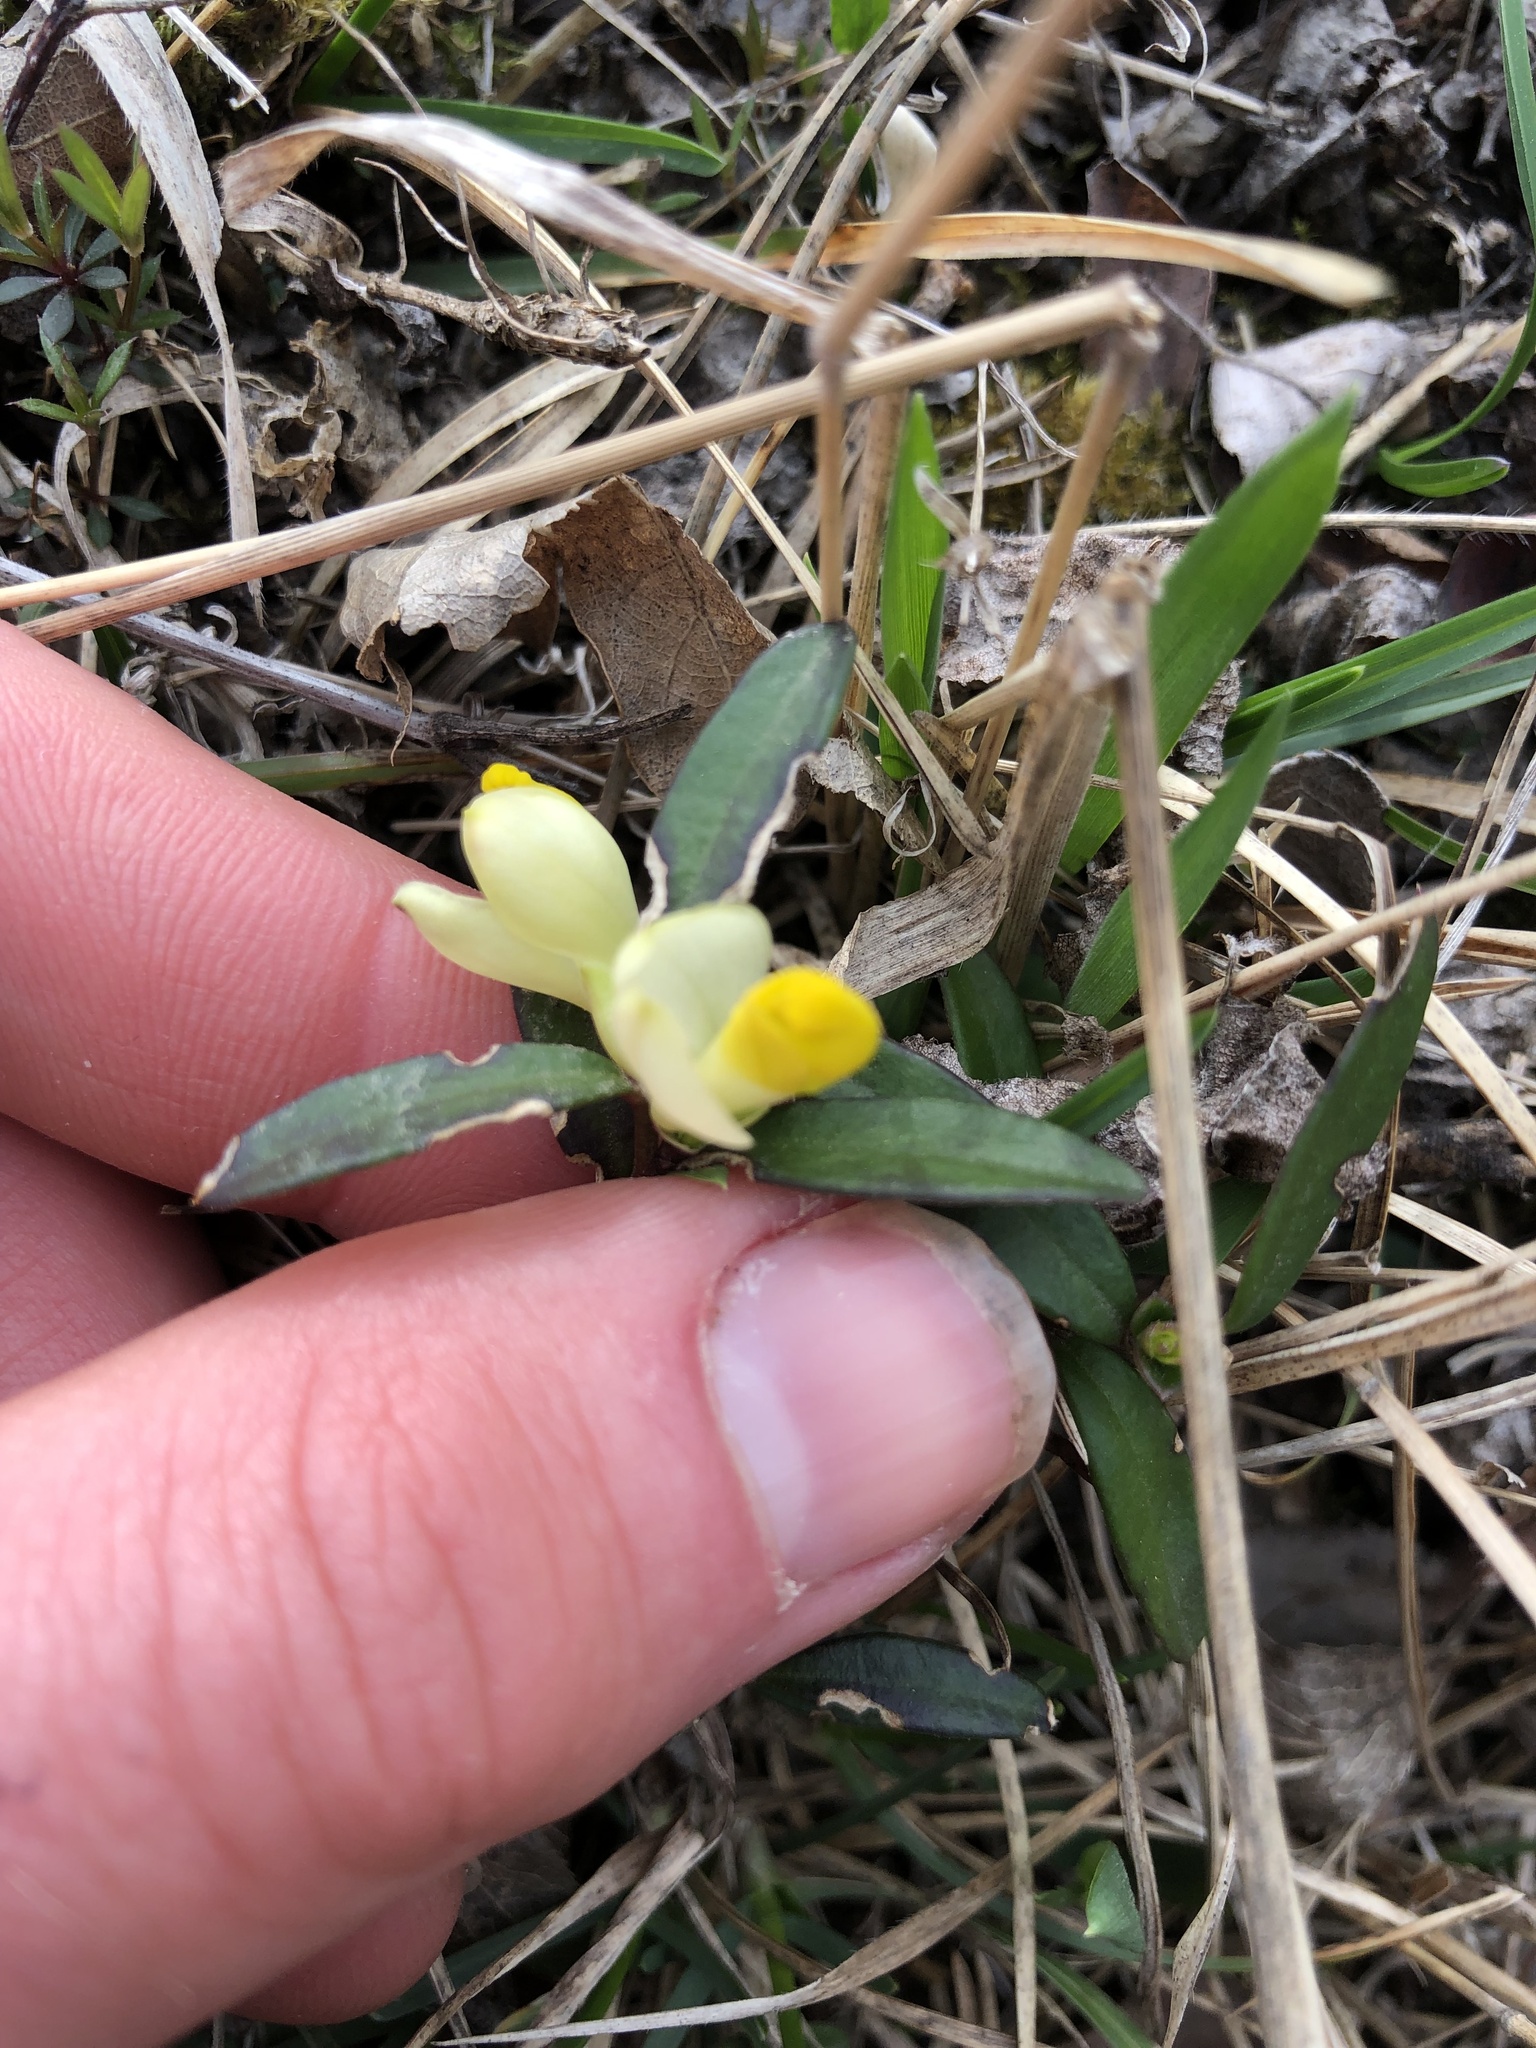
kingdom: Plantae
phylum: Tracheophyta
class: Magnoliopsida
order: Fabales
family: Polygalaceae
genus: Polygaloides
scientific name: Polygaloides chamaebuxus
